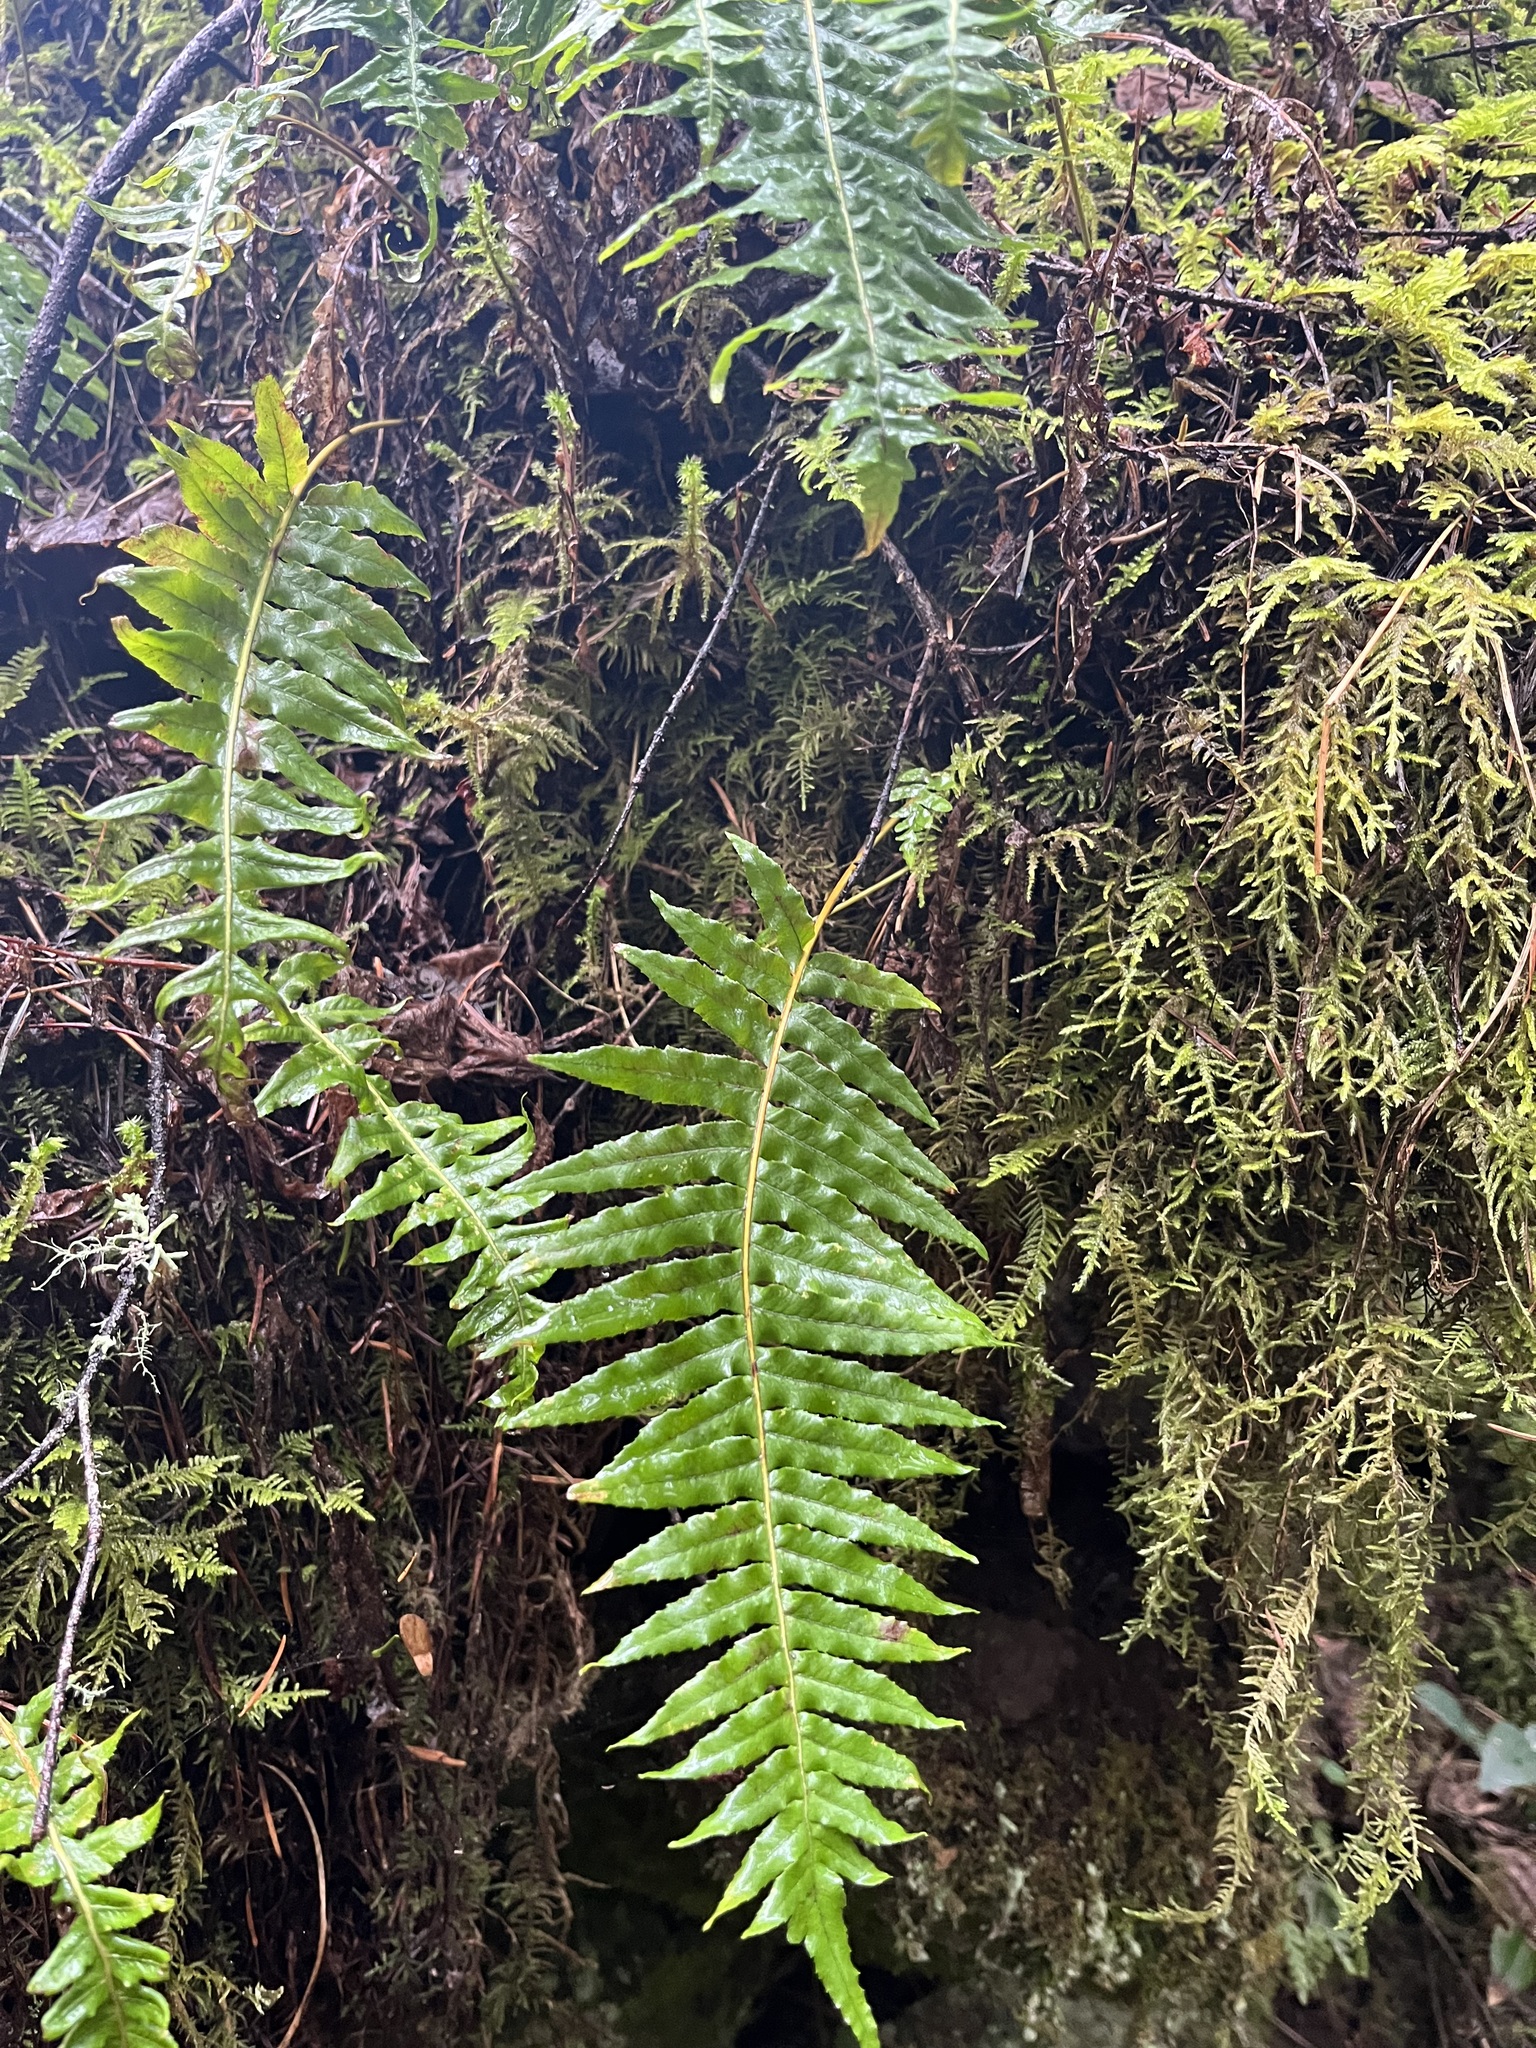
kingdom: Plantae
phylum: Tracheophyta
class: Polypodiopsida
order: Polypodiales
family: Polypodiaceae
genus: Polypodium
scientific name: Polypodium glycyrrhiza
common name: Licorice fern
